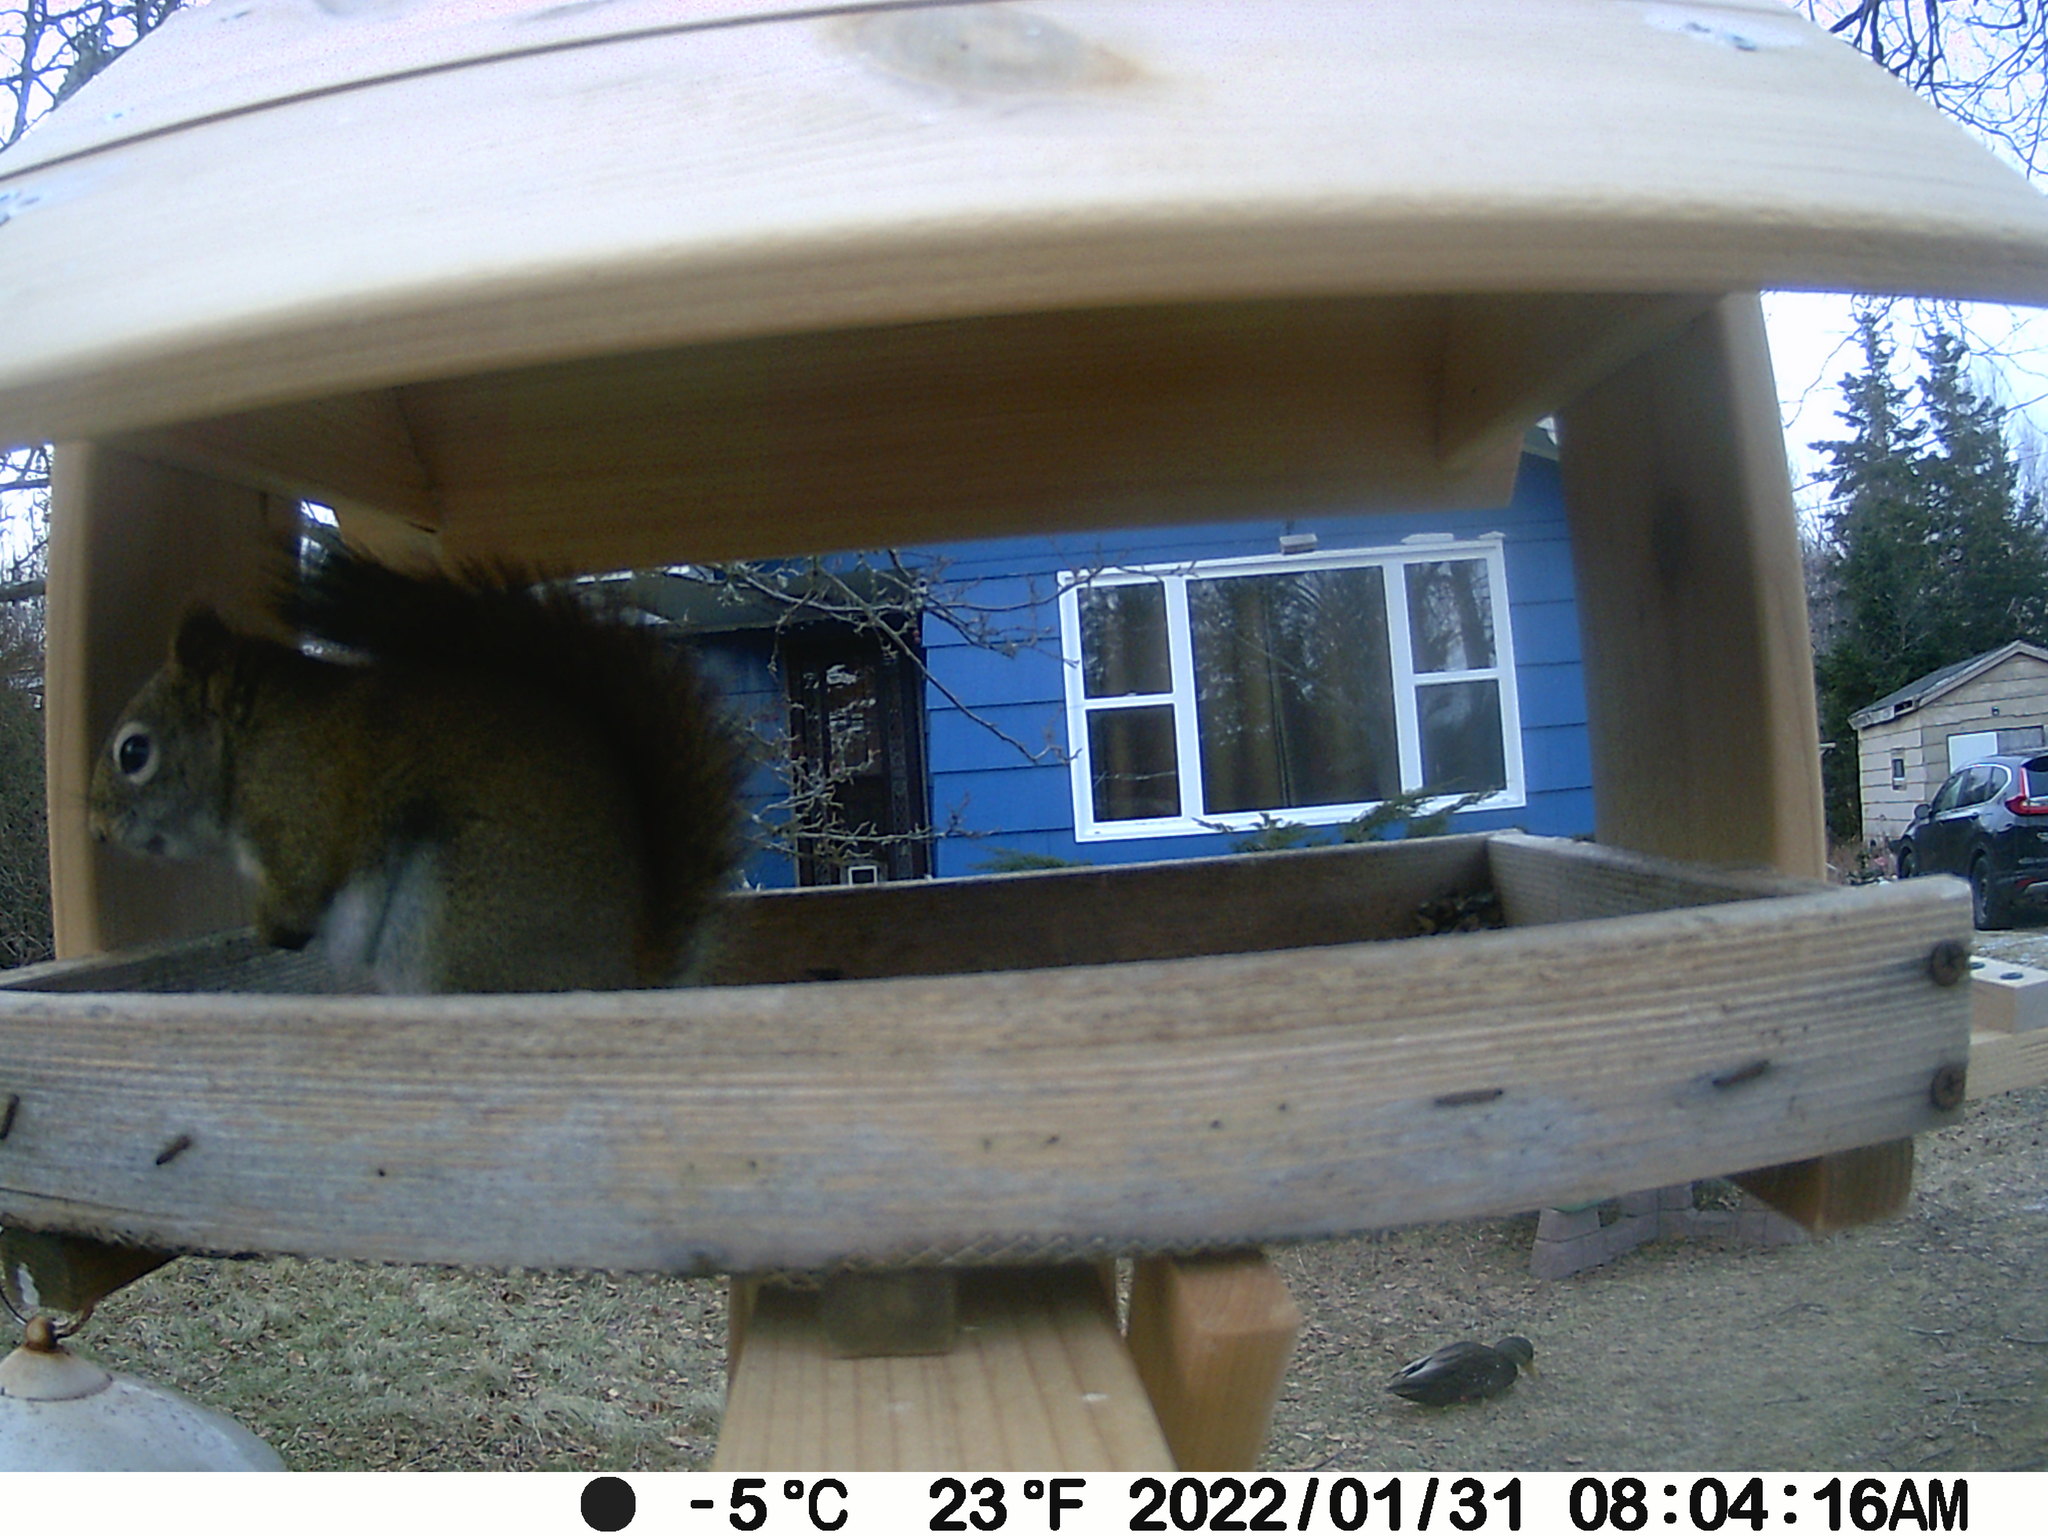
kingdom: Animalia
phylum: Chordata
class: Mammalia
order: Rodentia
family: Sciuridae
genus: Tamiasciurus
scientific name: Tamiasciurus hudsonicus
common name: Red squirrel
